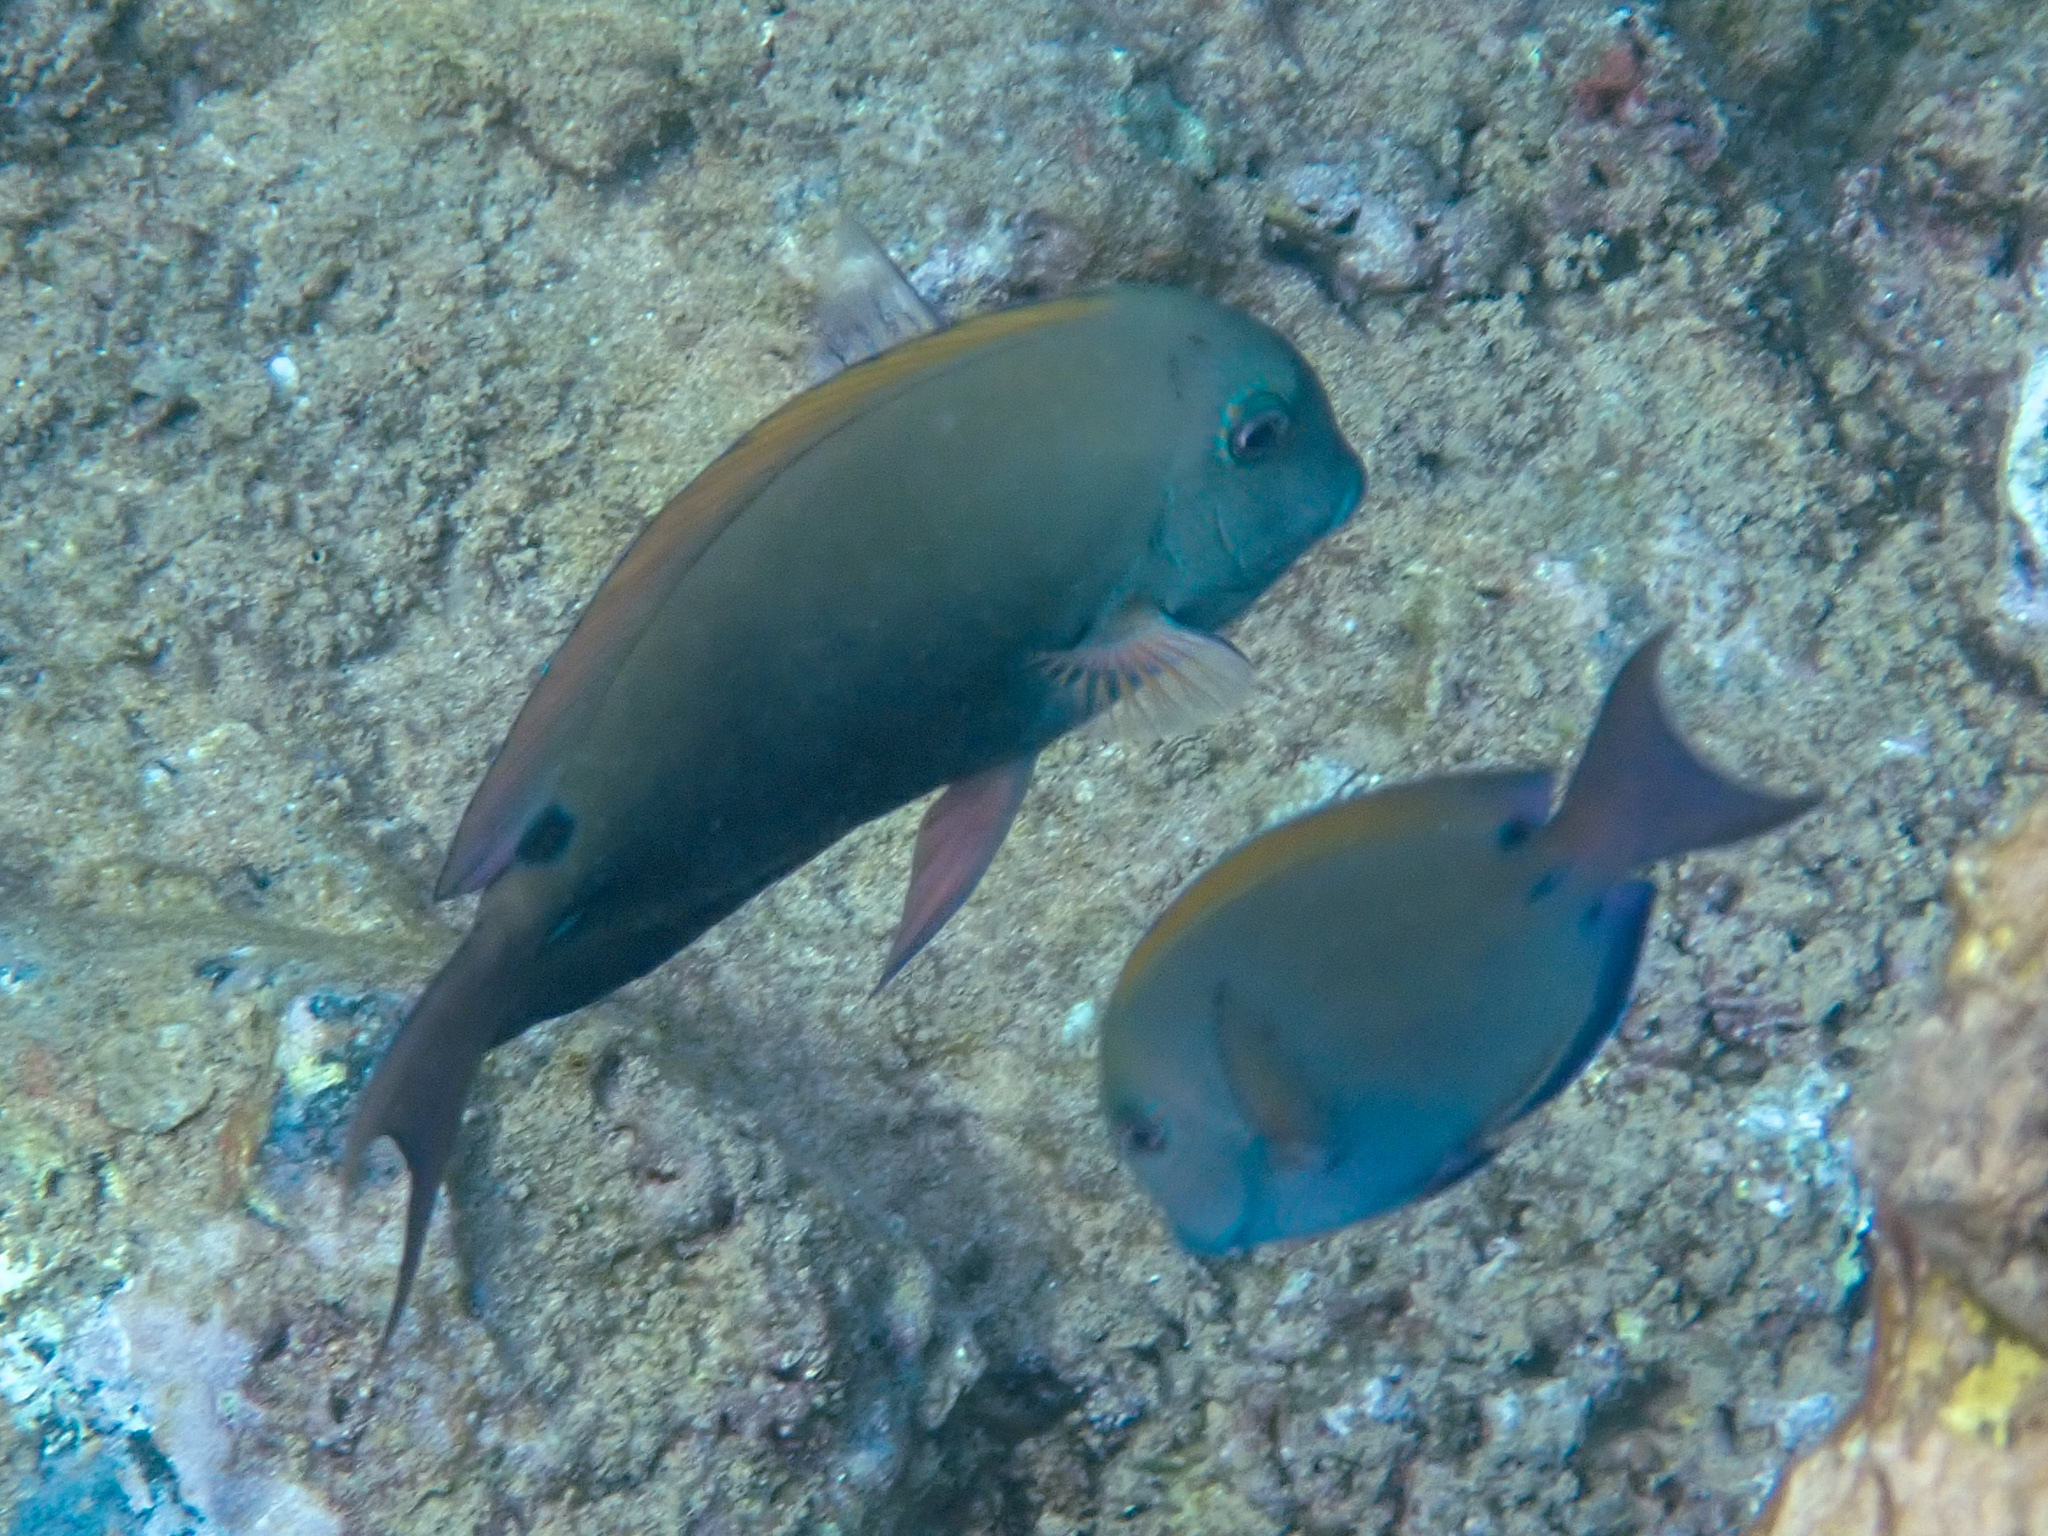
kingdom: Animalia
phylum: Chordata
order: Perciformes
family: Acanthuridae
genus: Acanthurus
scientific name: Acanthurus nigrofuscus
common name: Blackspot surgeonfish
